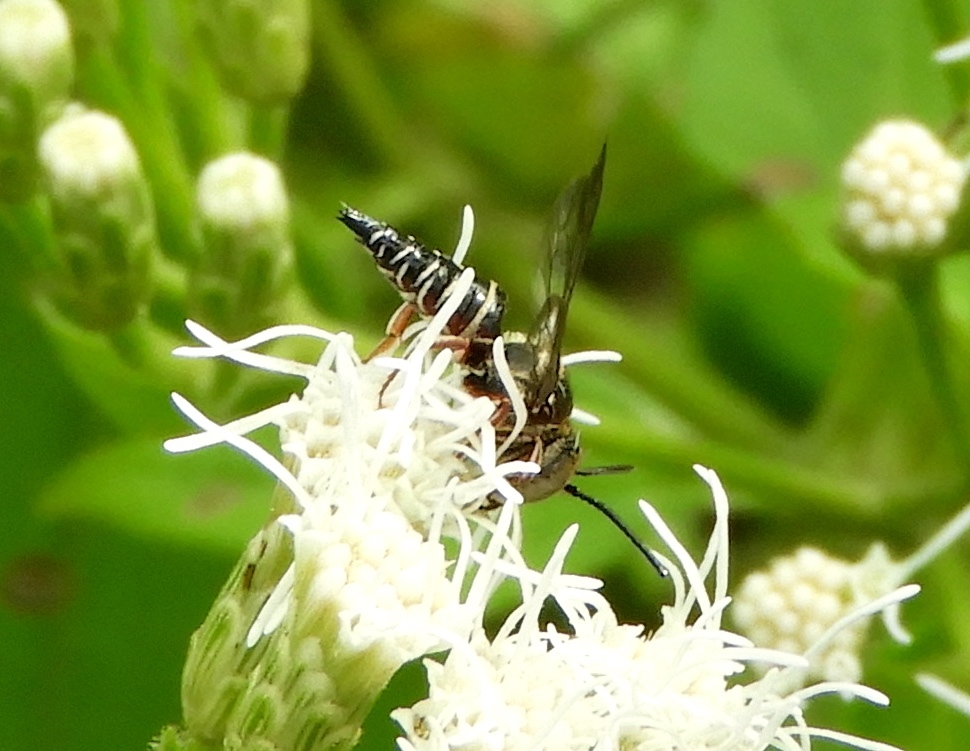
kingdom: Animalia
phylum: Arthropoda
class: Insecta
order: Hymenoptera
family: Megachilidae
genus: Coelioxys
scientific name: Coelioxys
